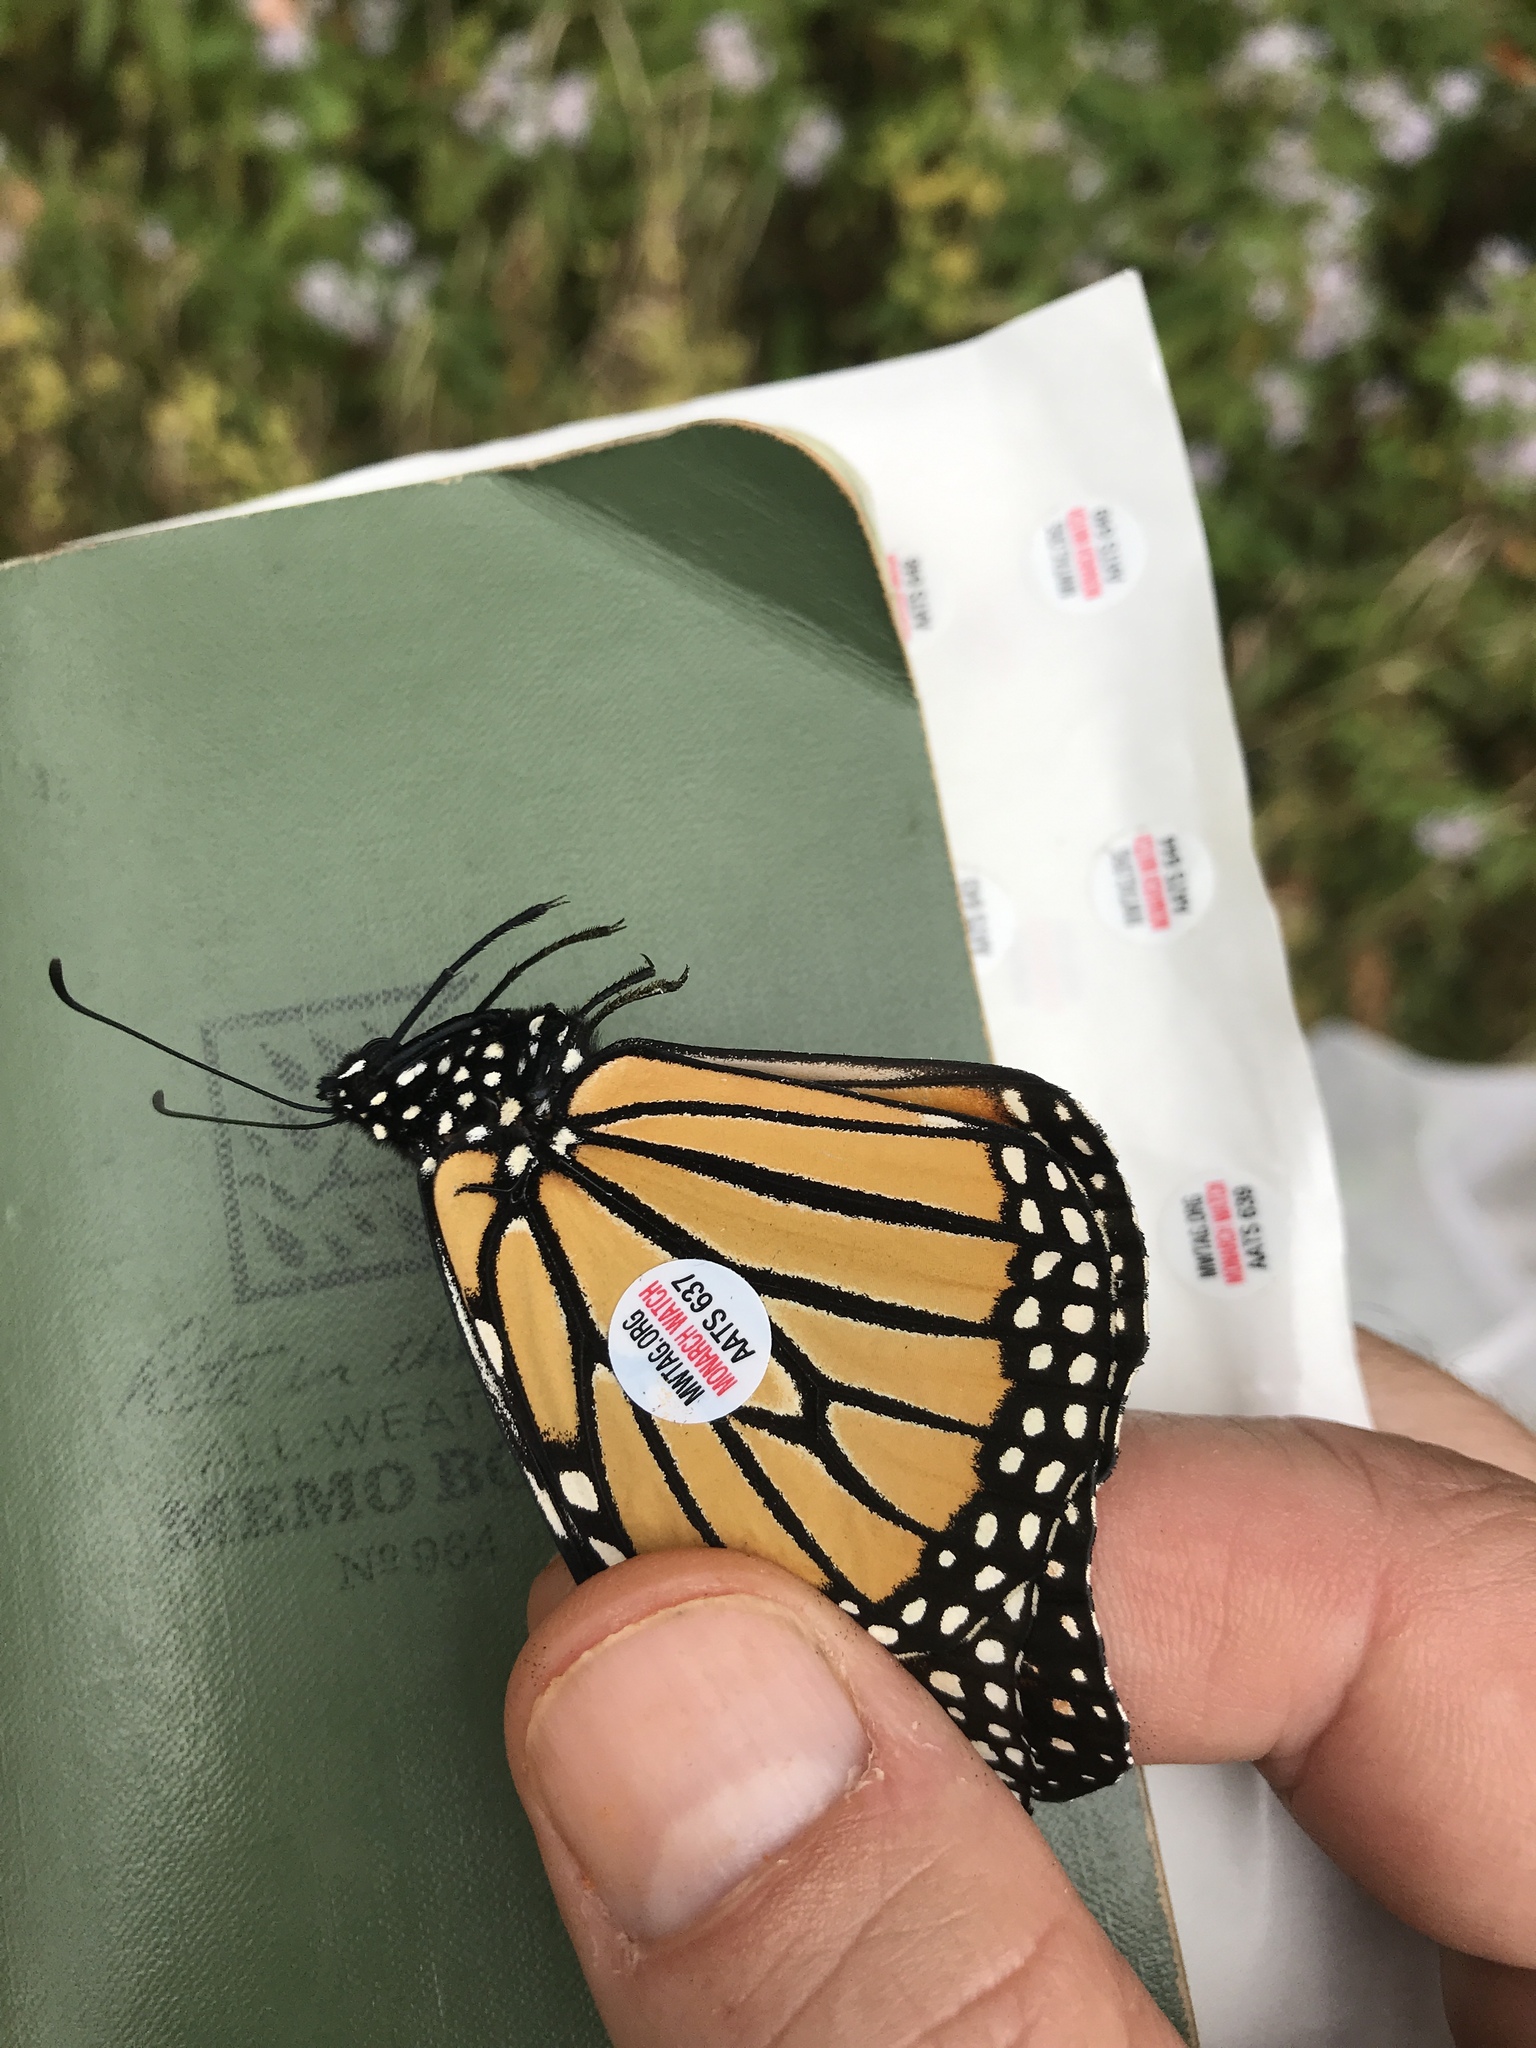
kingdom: Animalia
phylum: Arthropoda
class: Insecta
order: Lepidoptera
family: Nymphalidae
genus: Danaus
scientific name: Danaus plexippus
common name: Monarch
